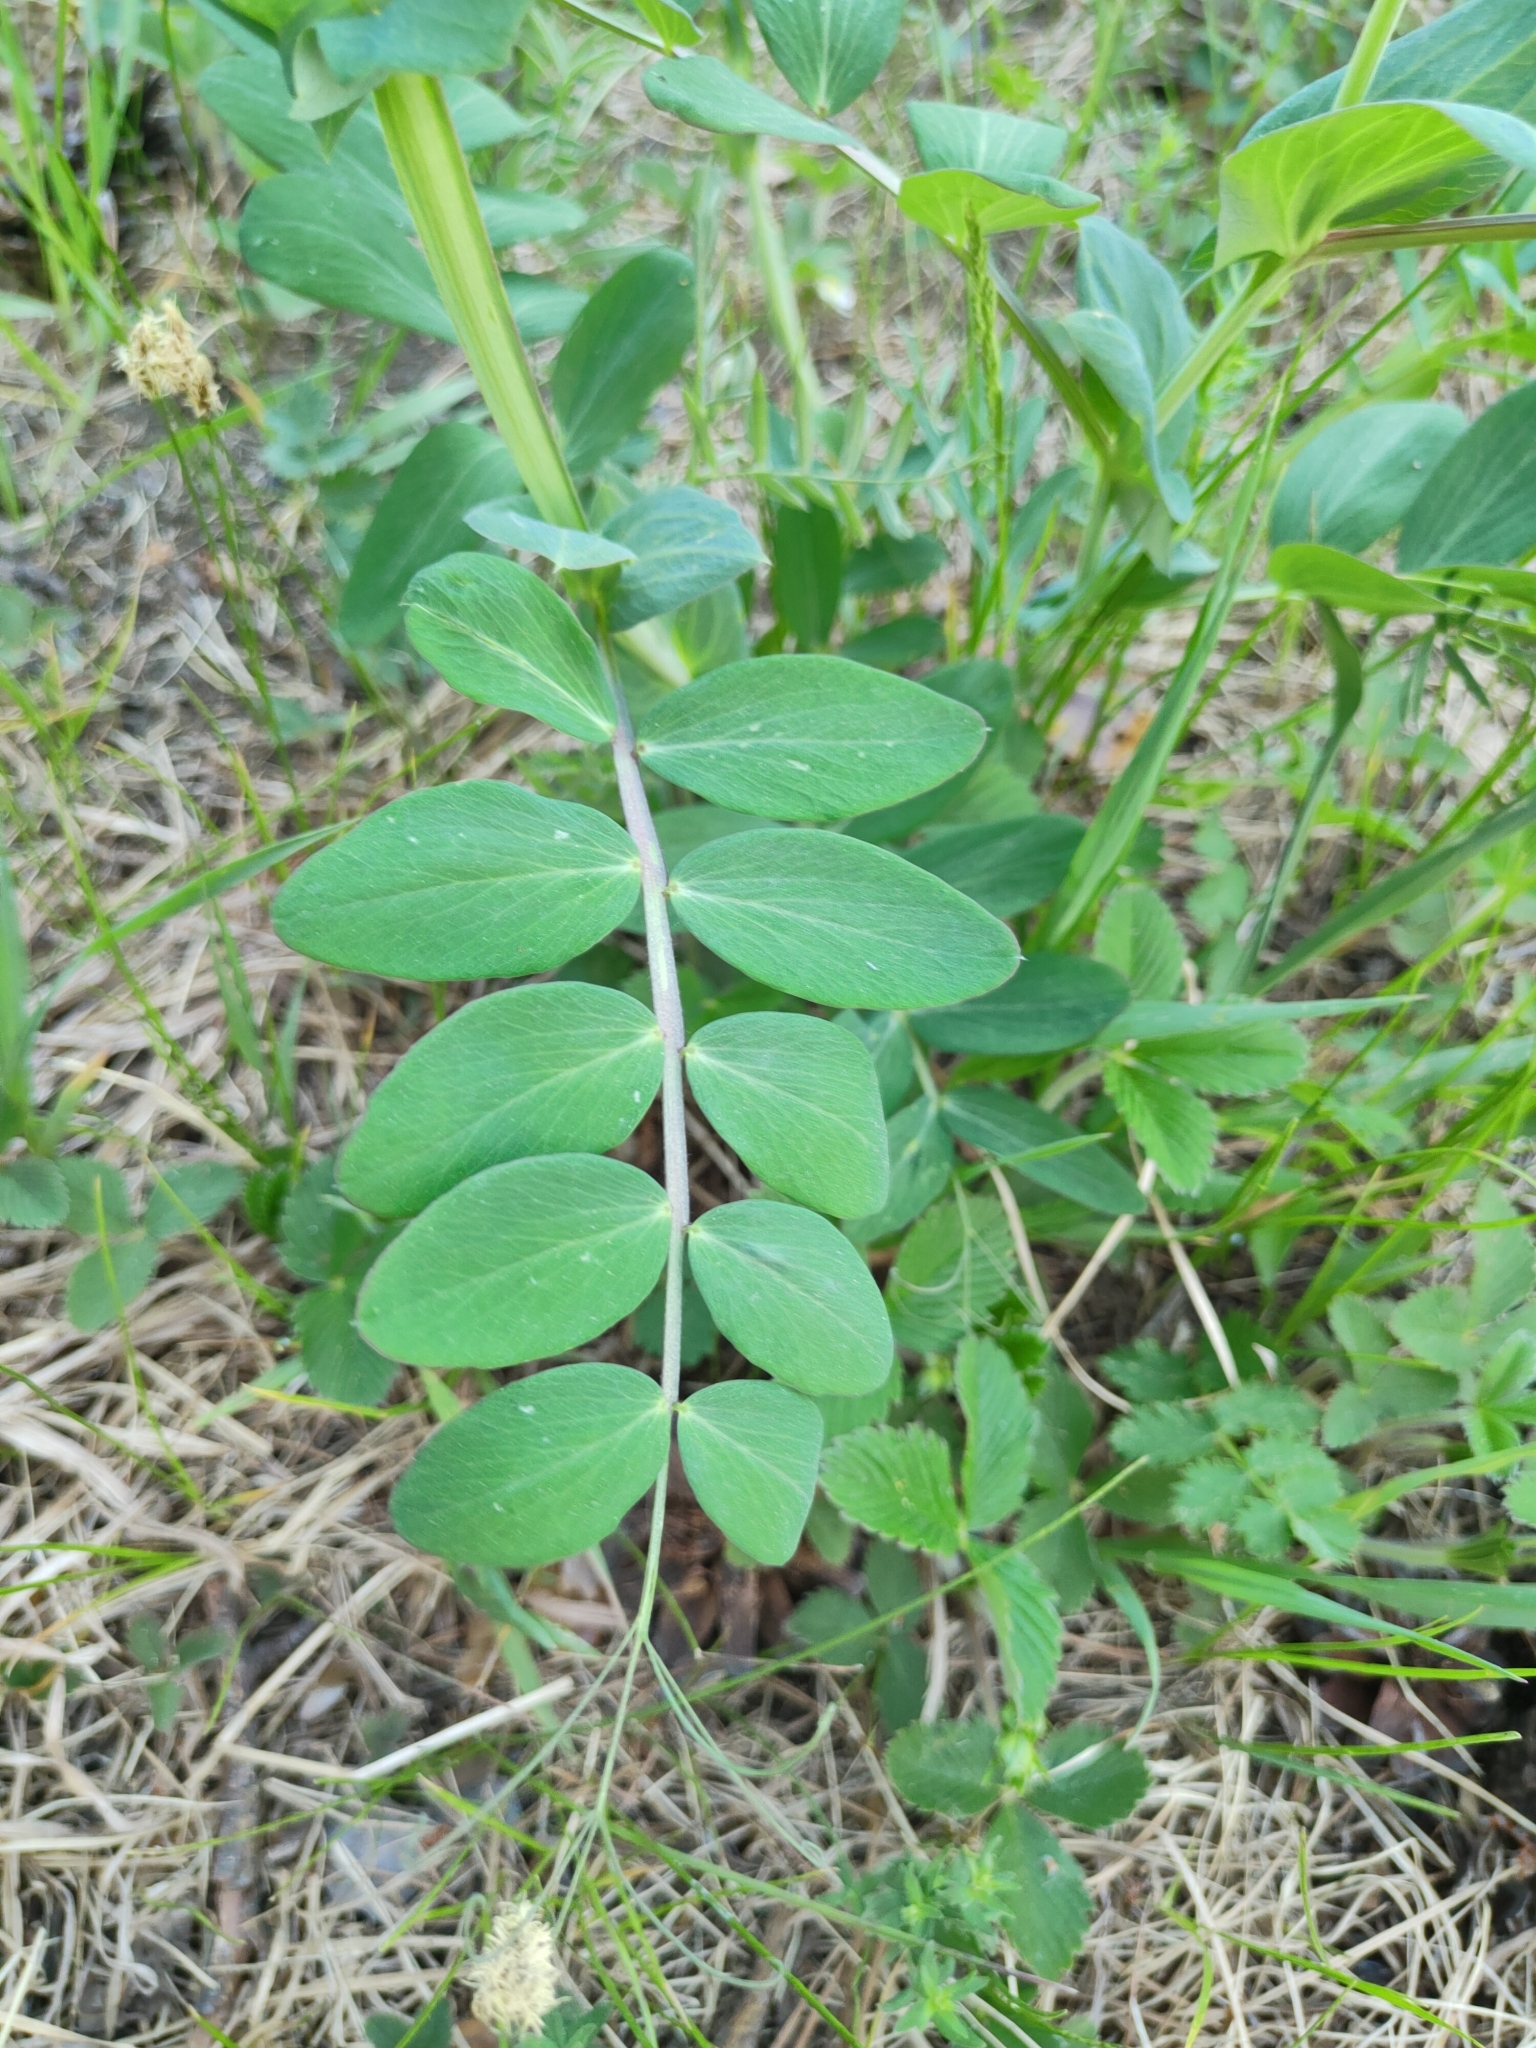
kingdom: Plantae
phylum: Tracheophyta
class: Magnoliopsida
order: Fabales
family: Fabaceae
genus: Lathyrus
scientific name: Lathyrus pisiformis
